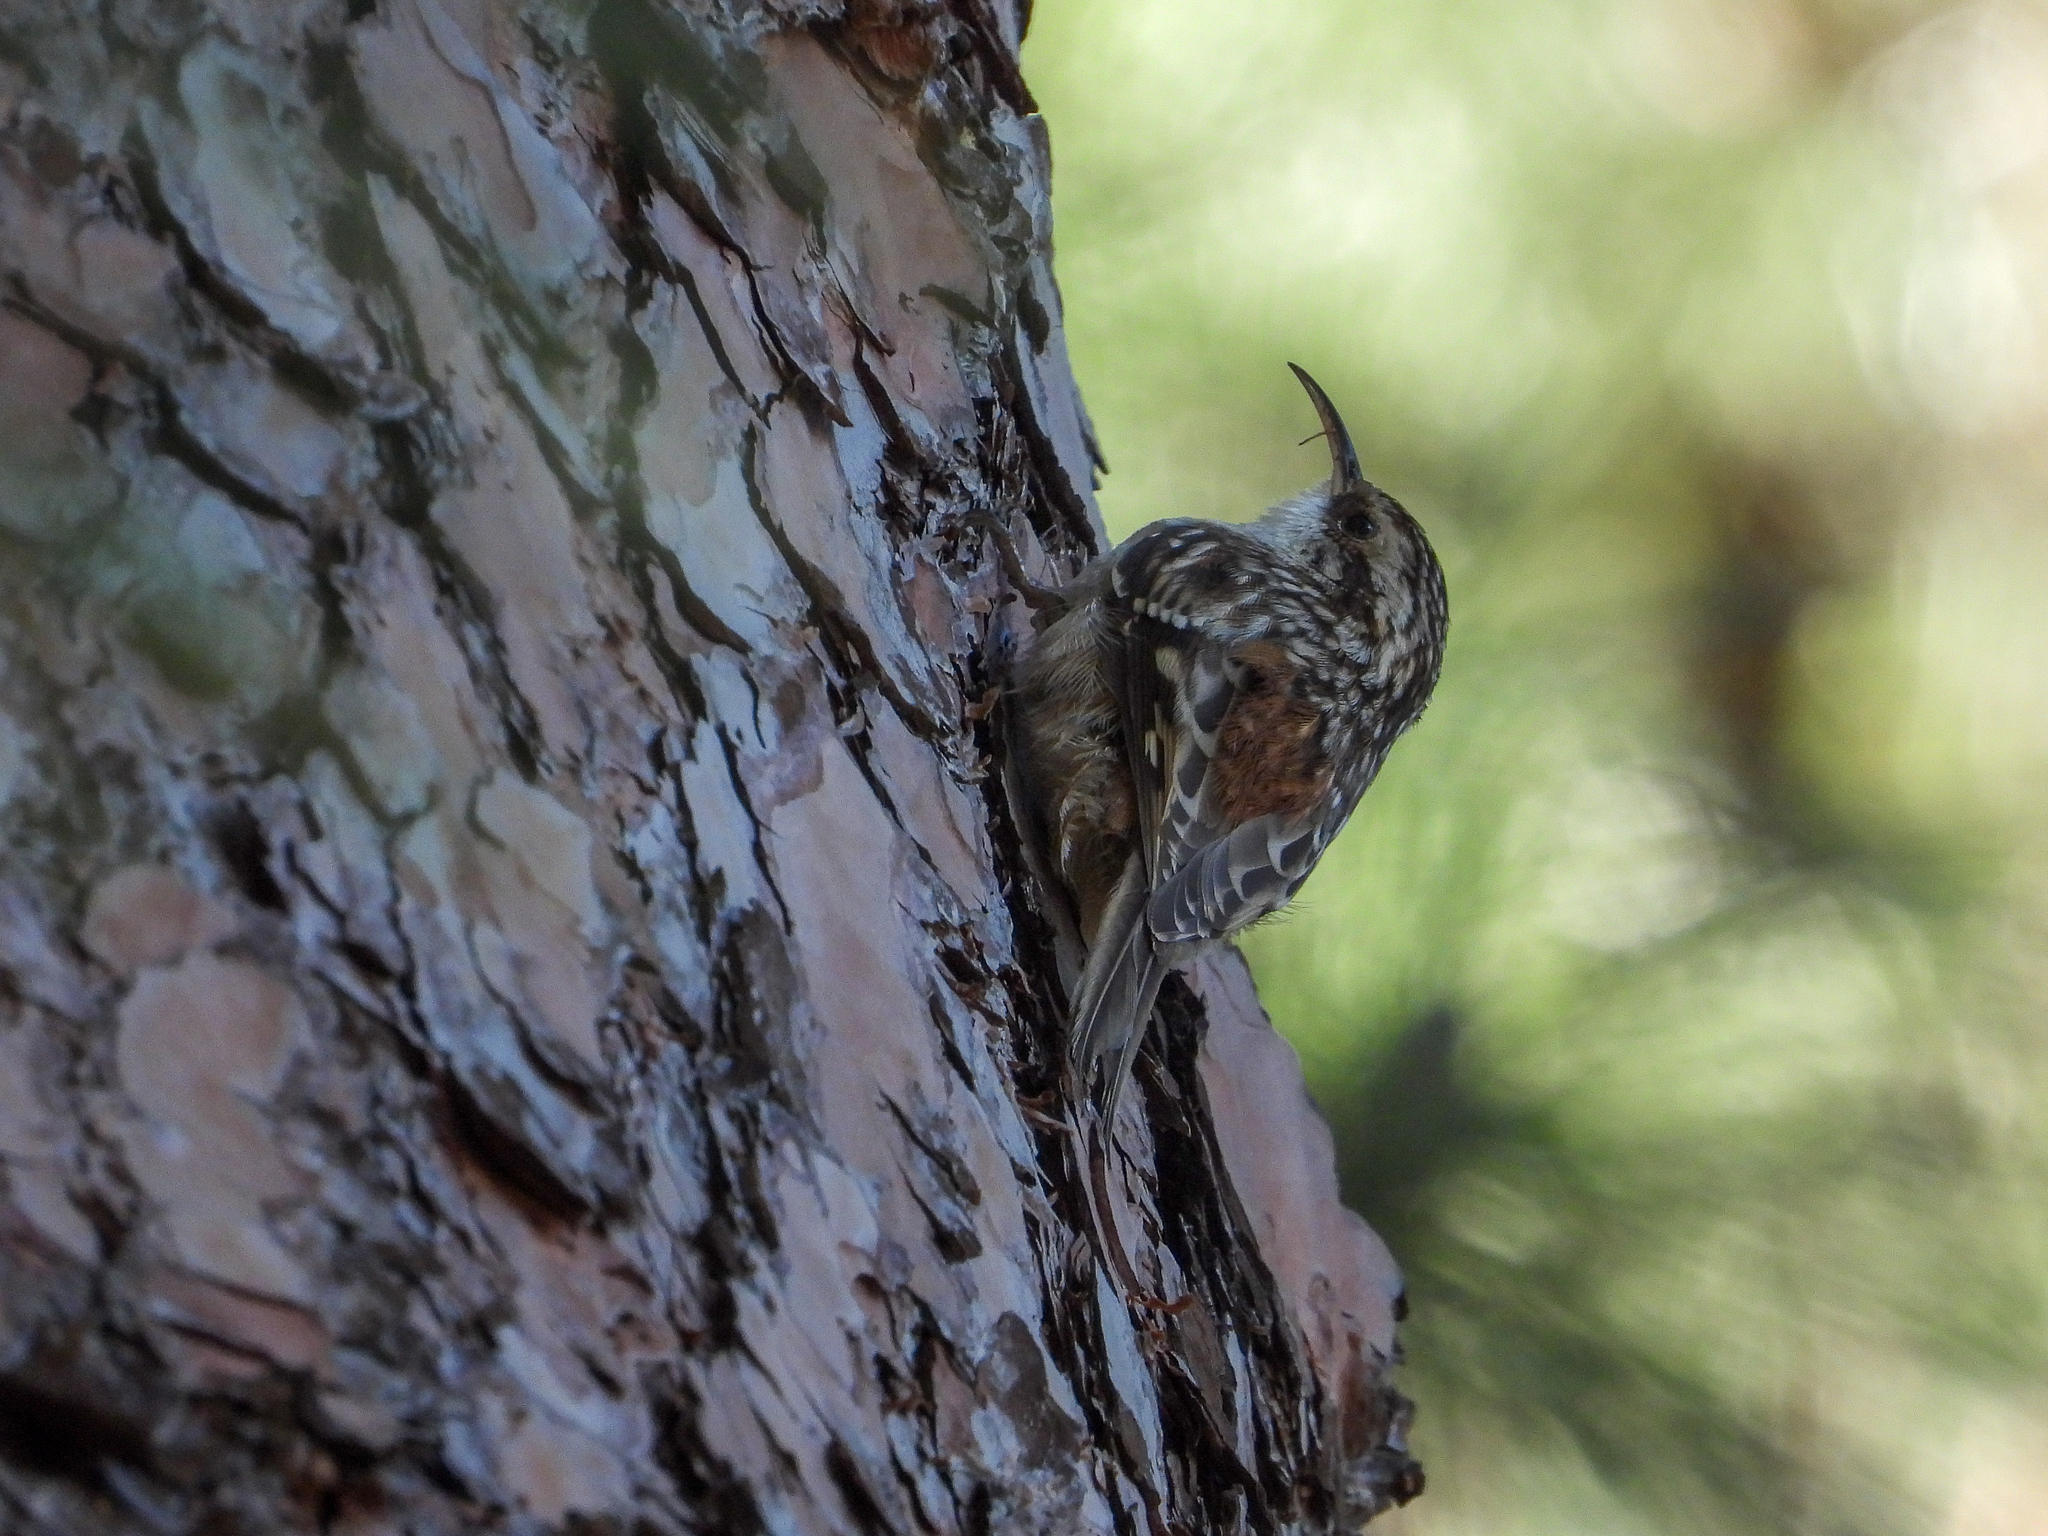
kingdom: Animalia
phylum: Chordata
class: Aves
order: Passeriformes
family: Certhiidae
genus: Certhia
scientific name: Certhia americana
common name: Brown creeper
